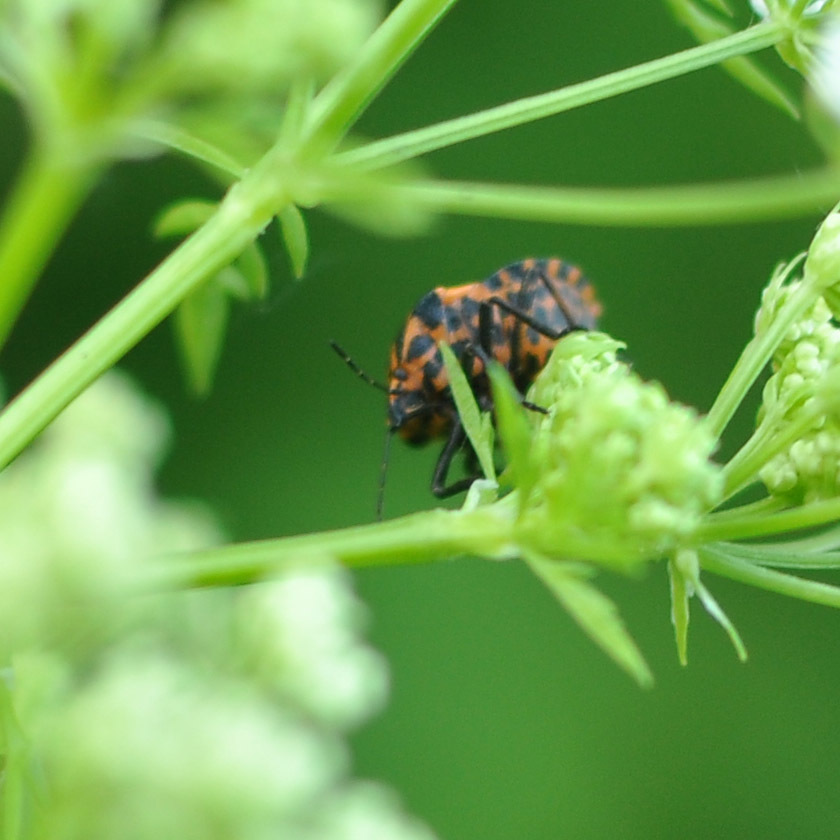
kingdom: Animalia
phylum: Arthropoda
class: Insecta
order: Hemiptera
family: Pentatomidae
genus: Graphosoma
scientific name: Graphosoma italicum
